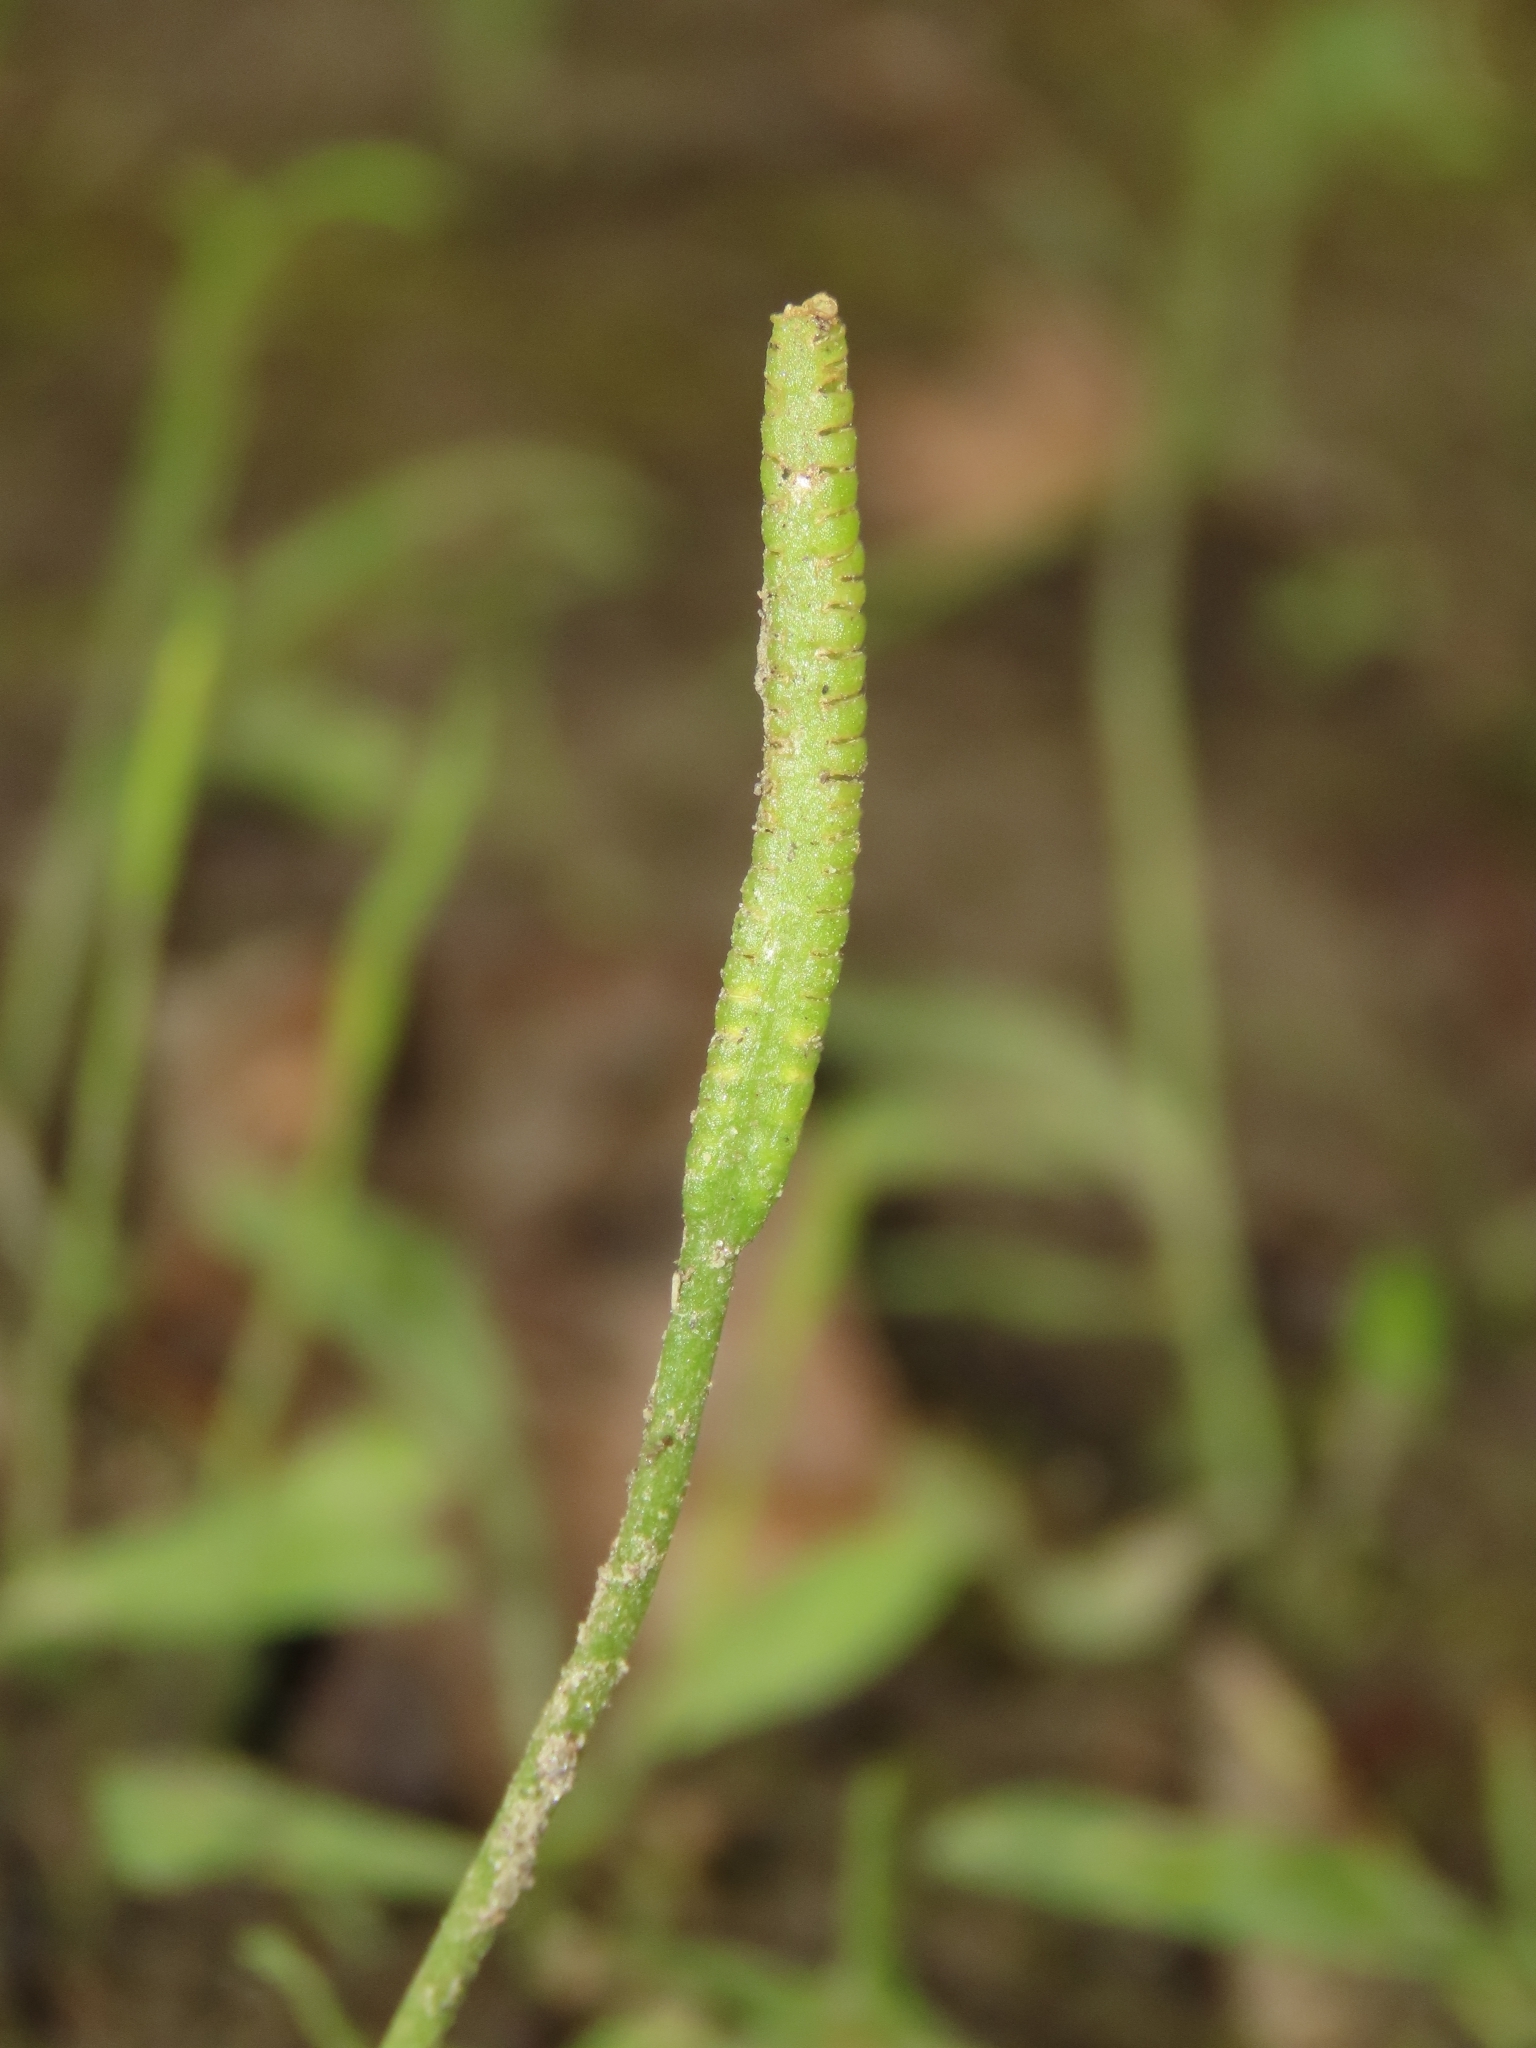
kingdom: Plantae
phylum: Tracheophyta
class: Polypodiopsida
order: Ophioglossales
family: Ophioglossaceae
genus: Ophioglossum
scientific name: Ophioglossum thermale
